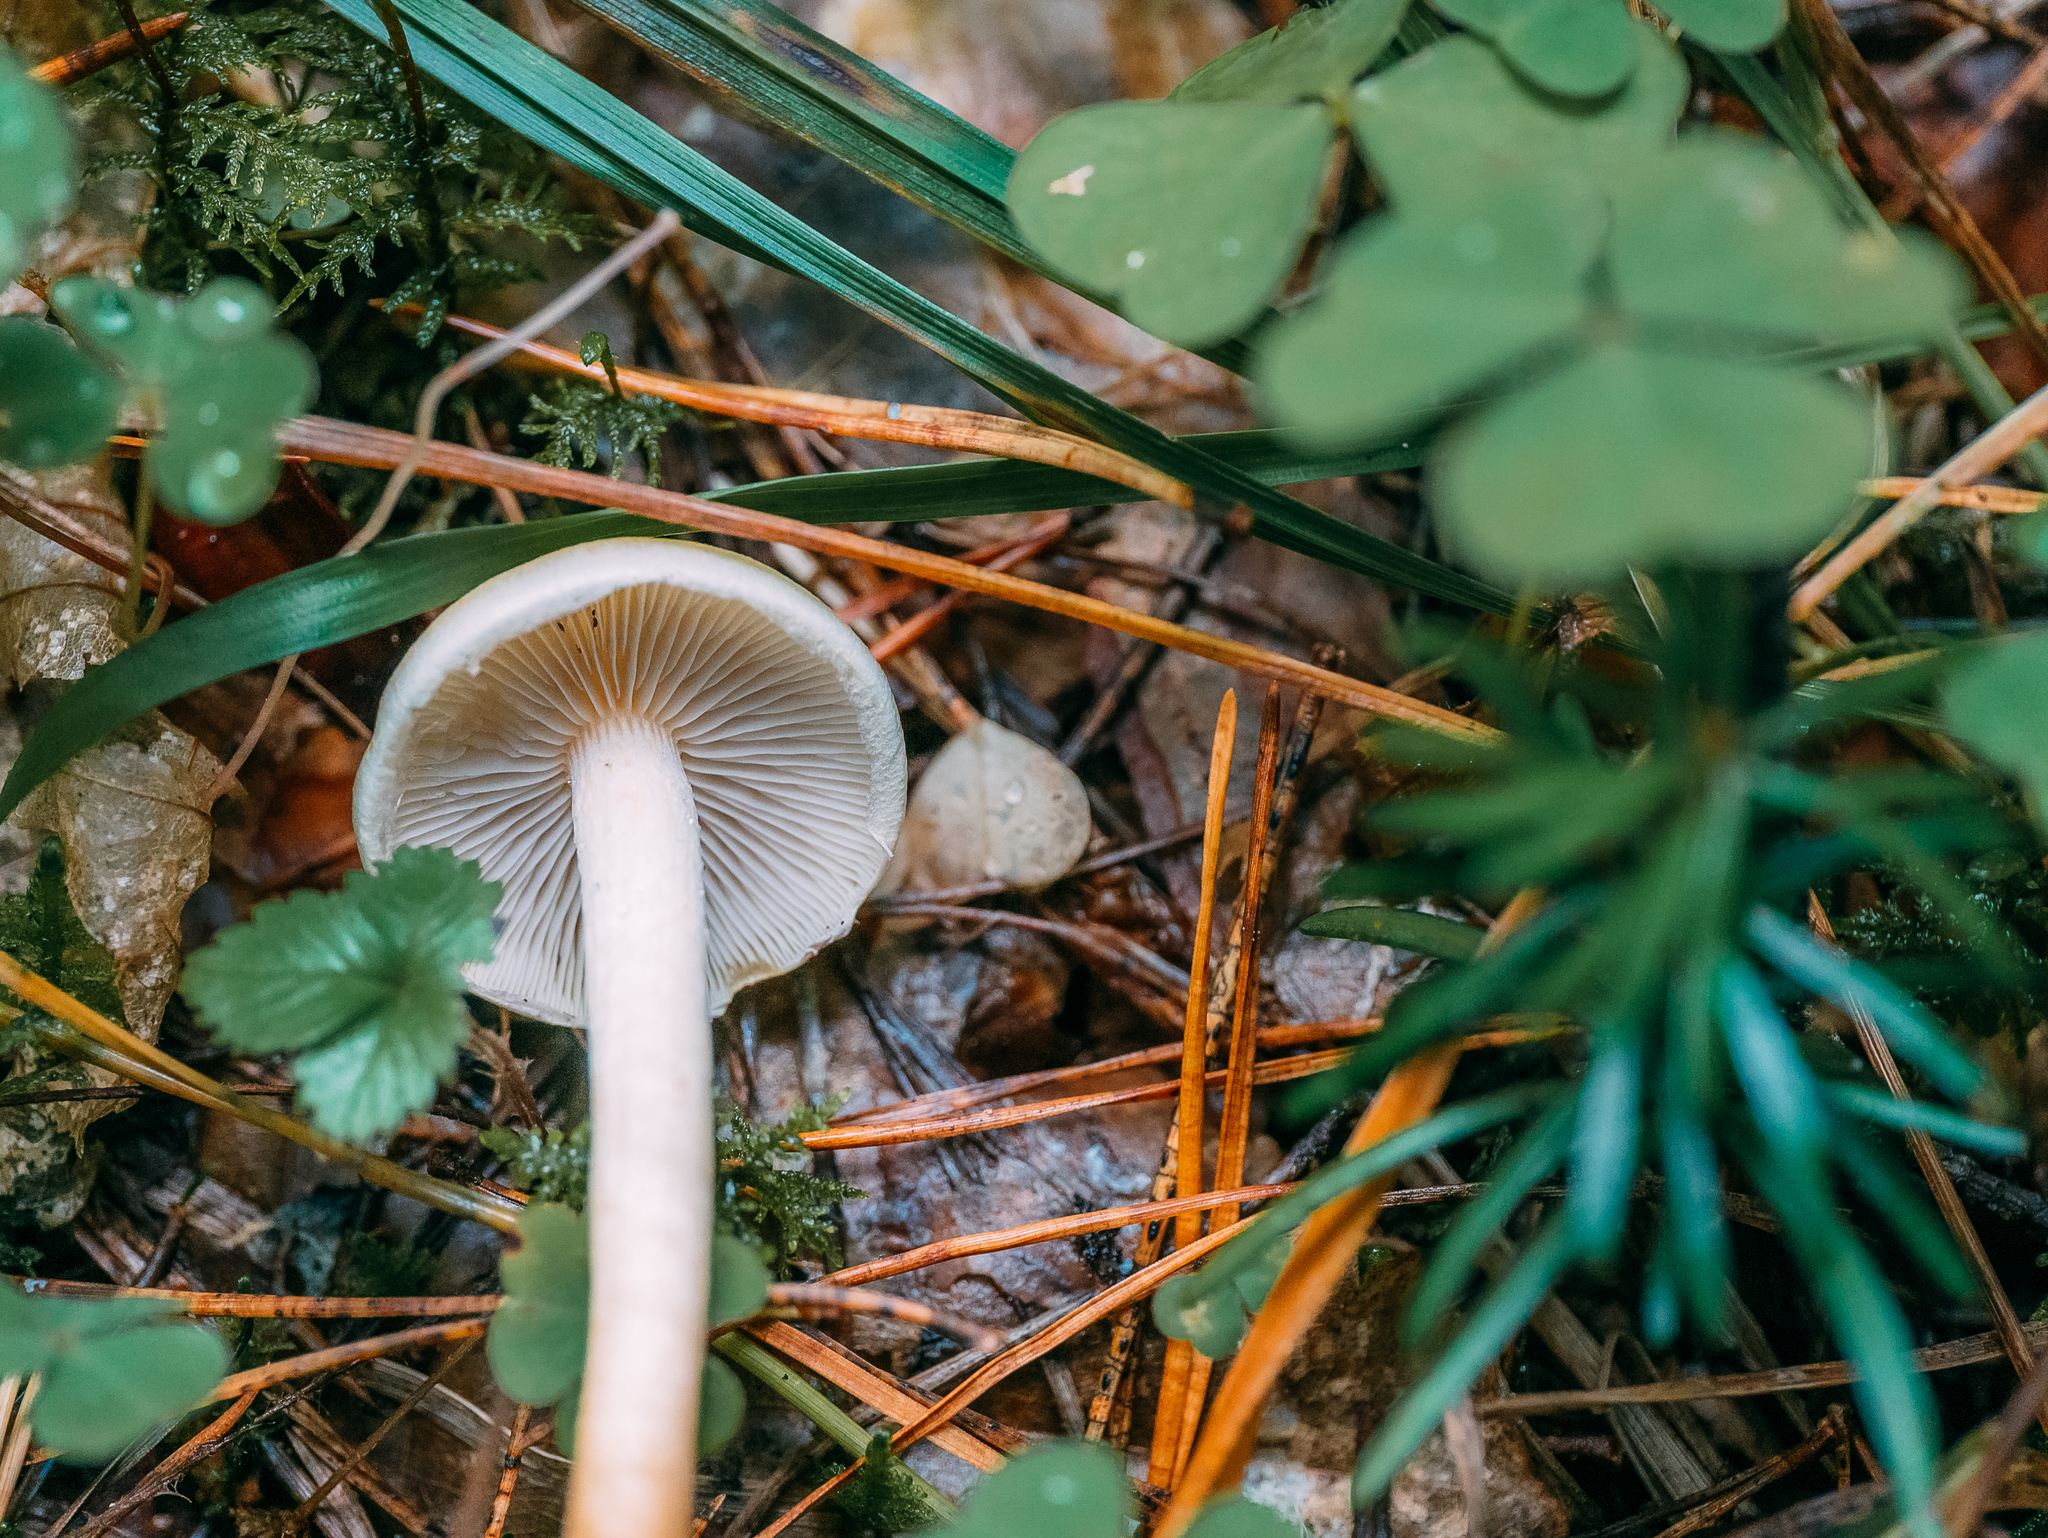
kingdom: Fungi
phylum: Basidiomycota
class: Agaricomycetes
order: Agaricales
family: Strophariaceae
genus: Hypholoma
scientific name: Hypholoma capnoides
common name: Conifer tuft
